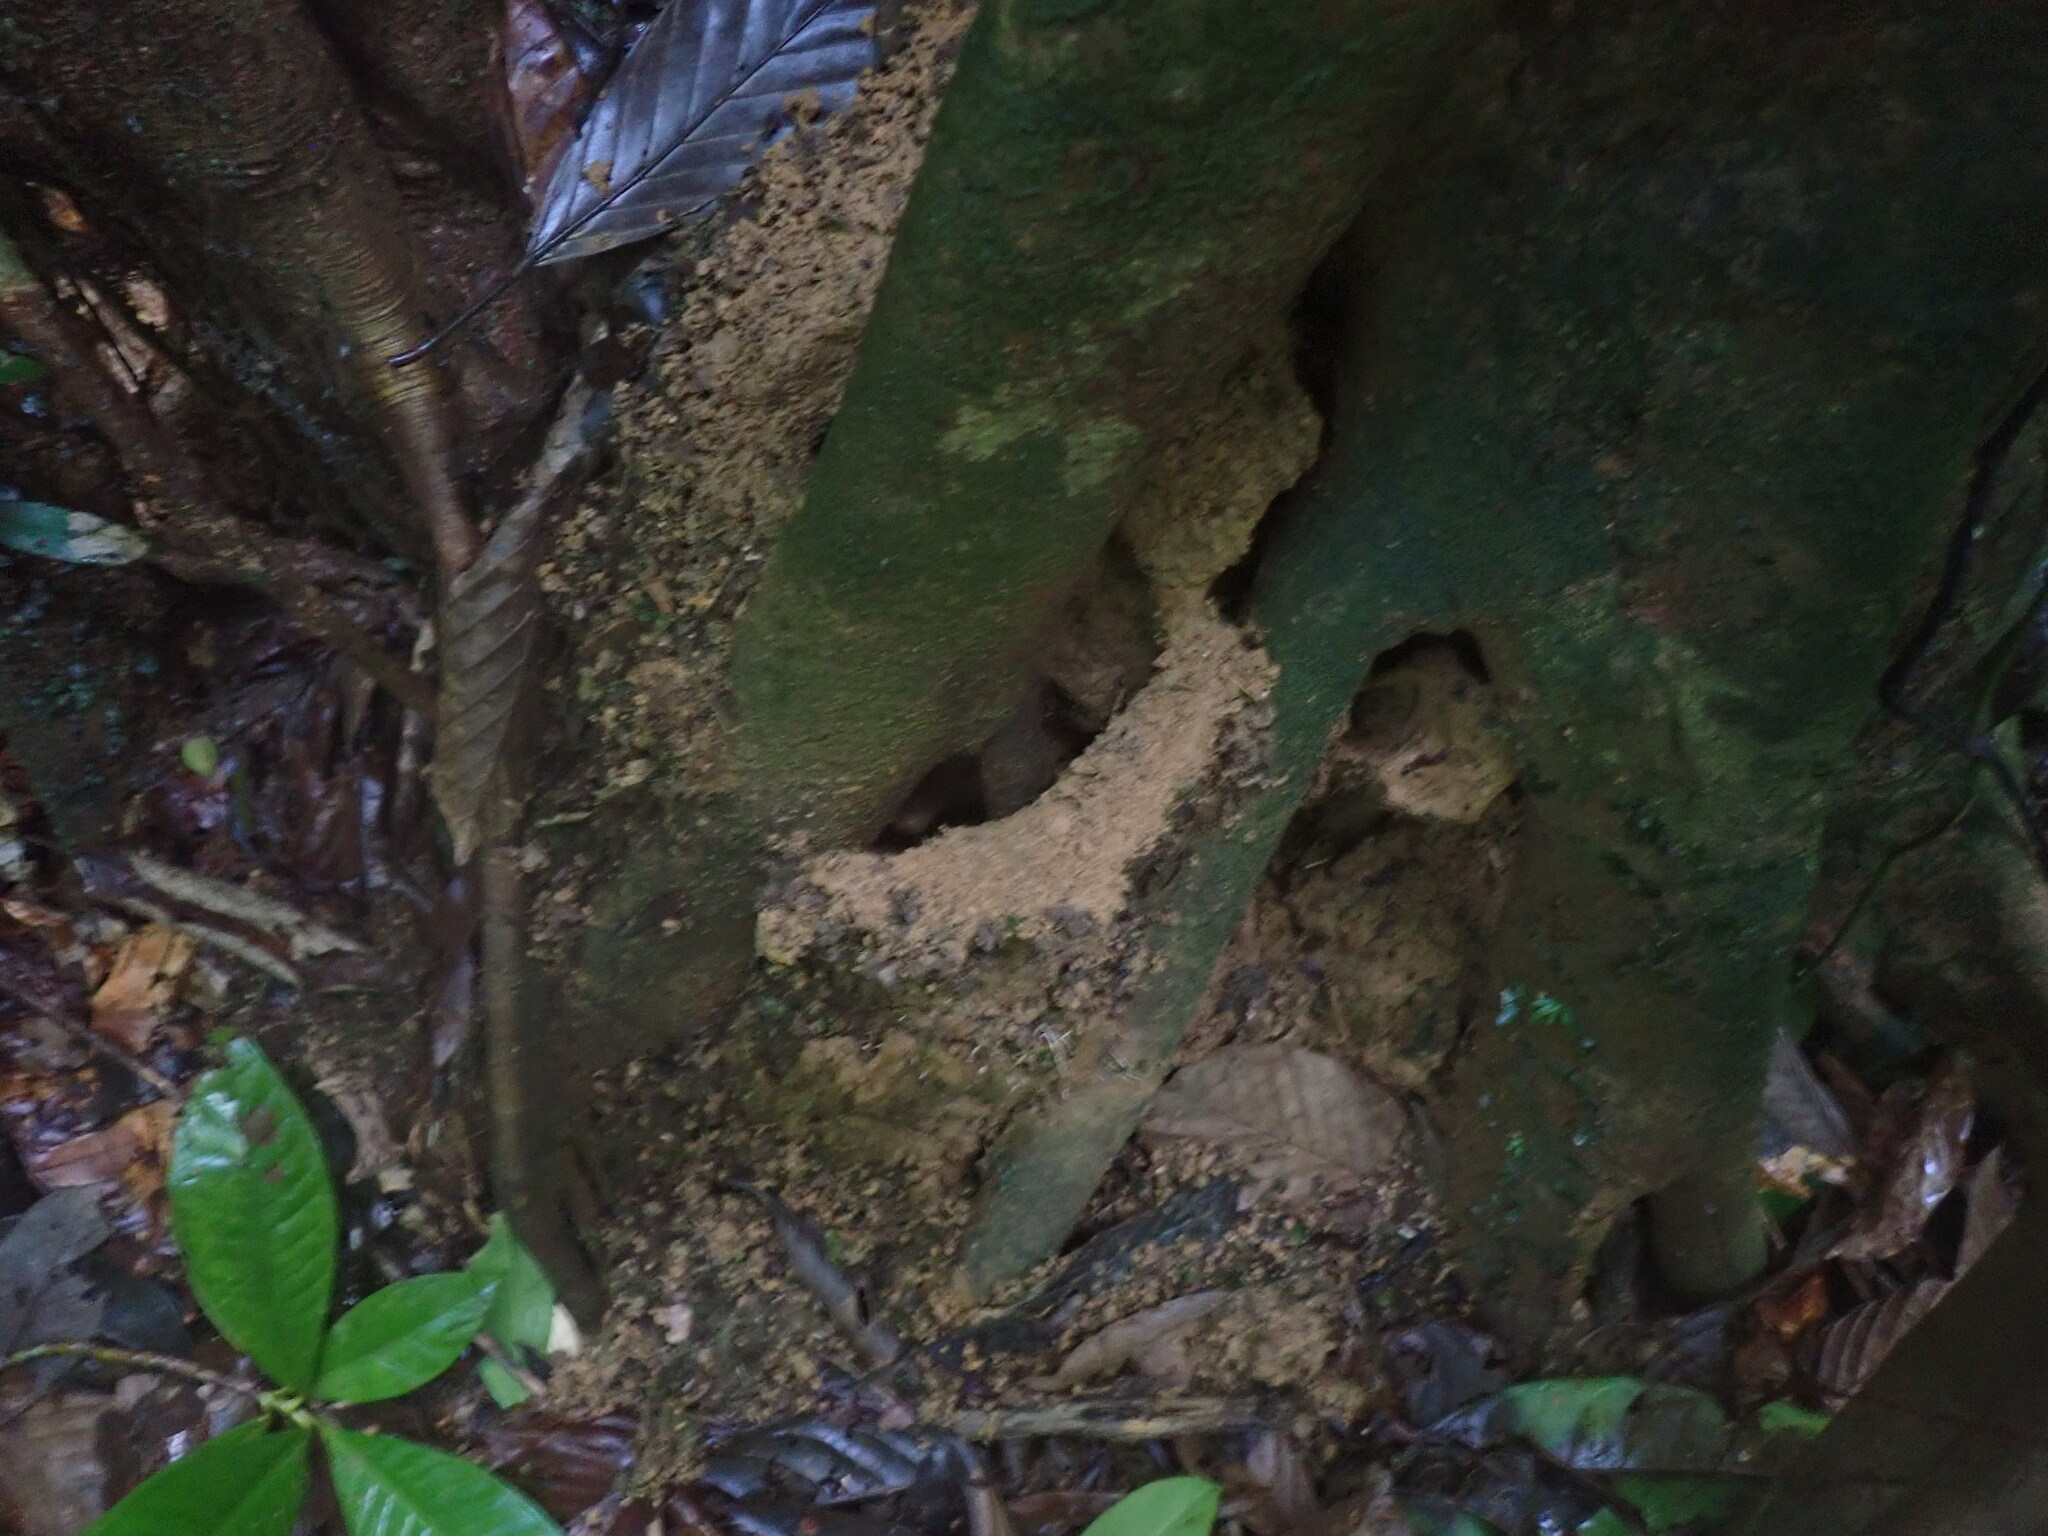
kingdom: Animalia
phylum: Arthropoda
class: Insecta
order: Hymenoptera
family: Formicidae
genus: Paraponera
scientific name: Paraponera clavata
